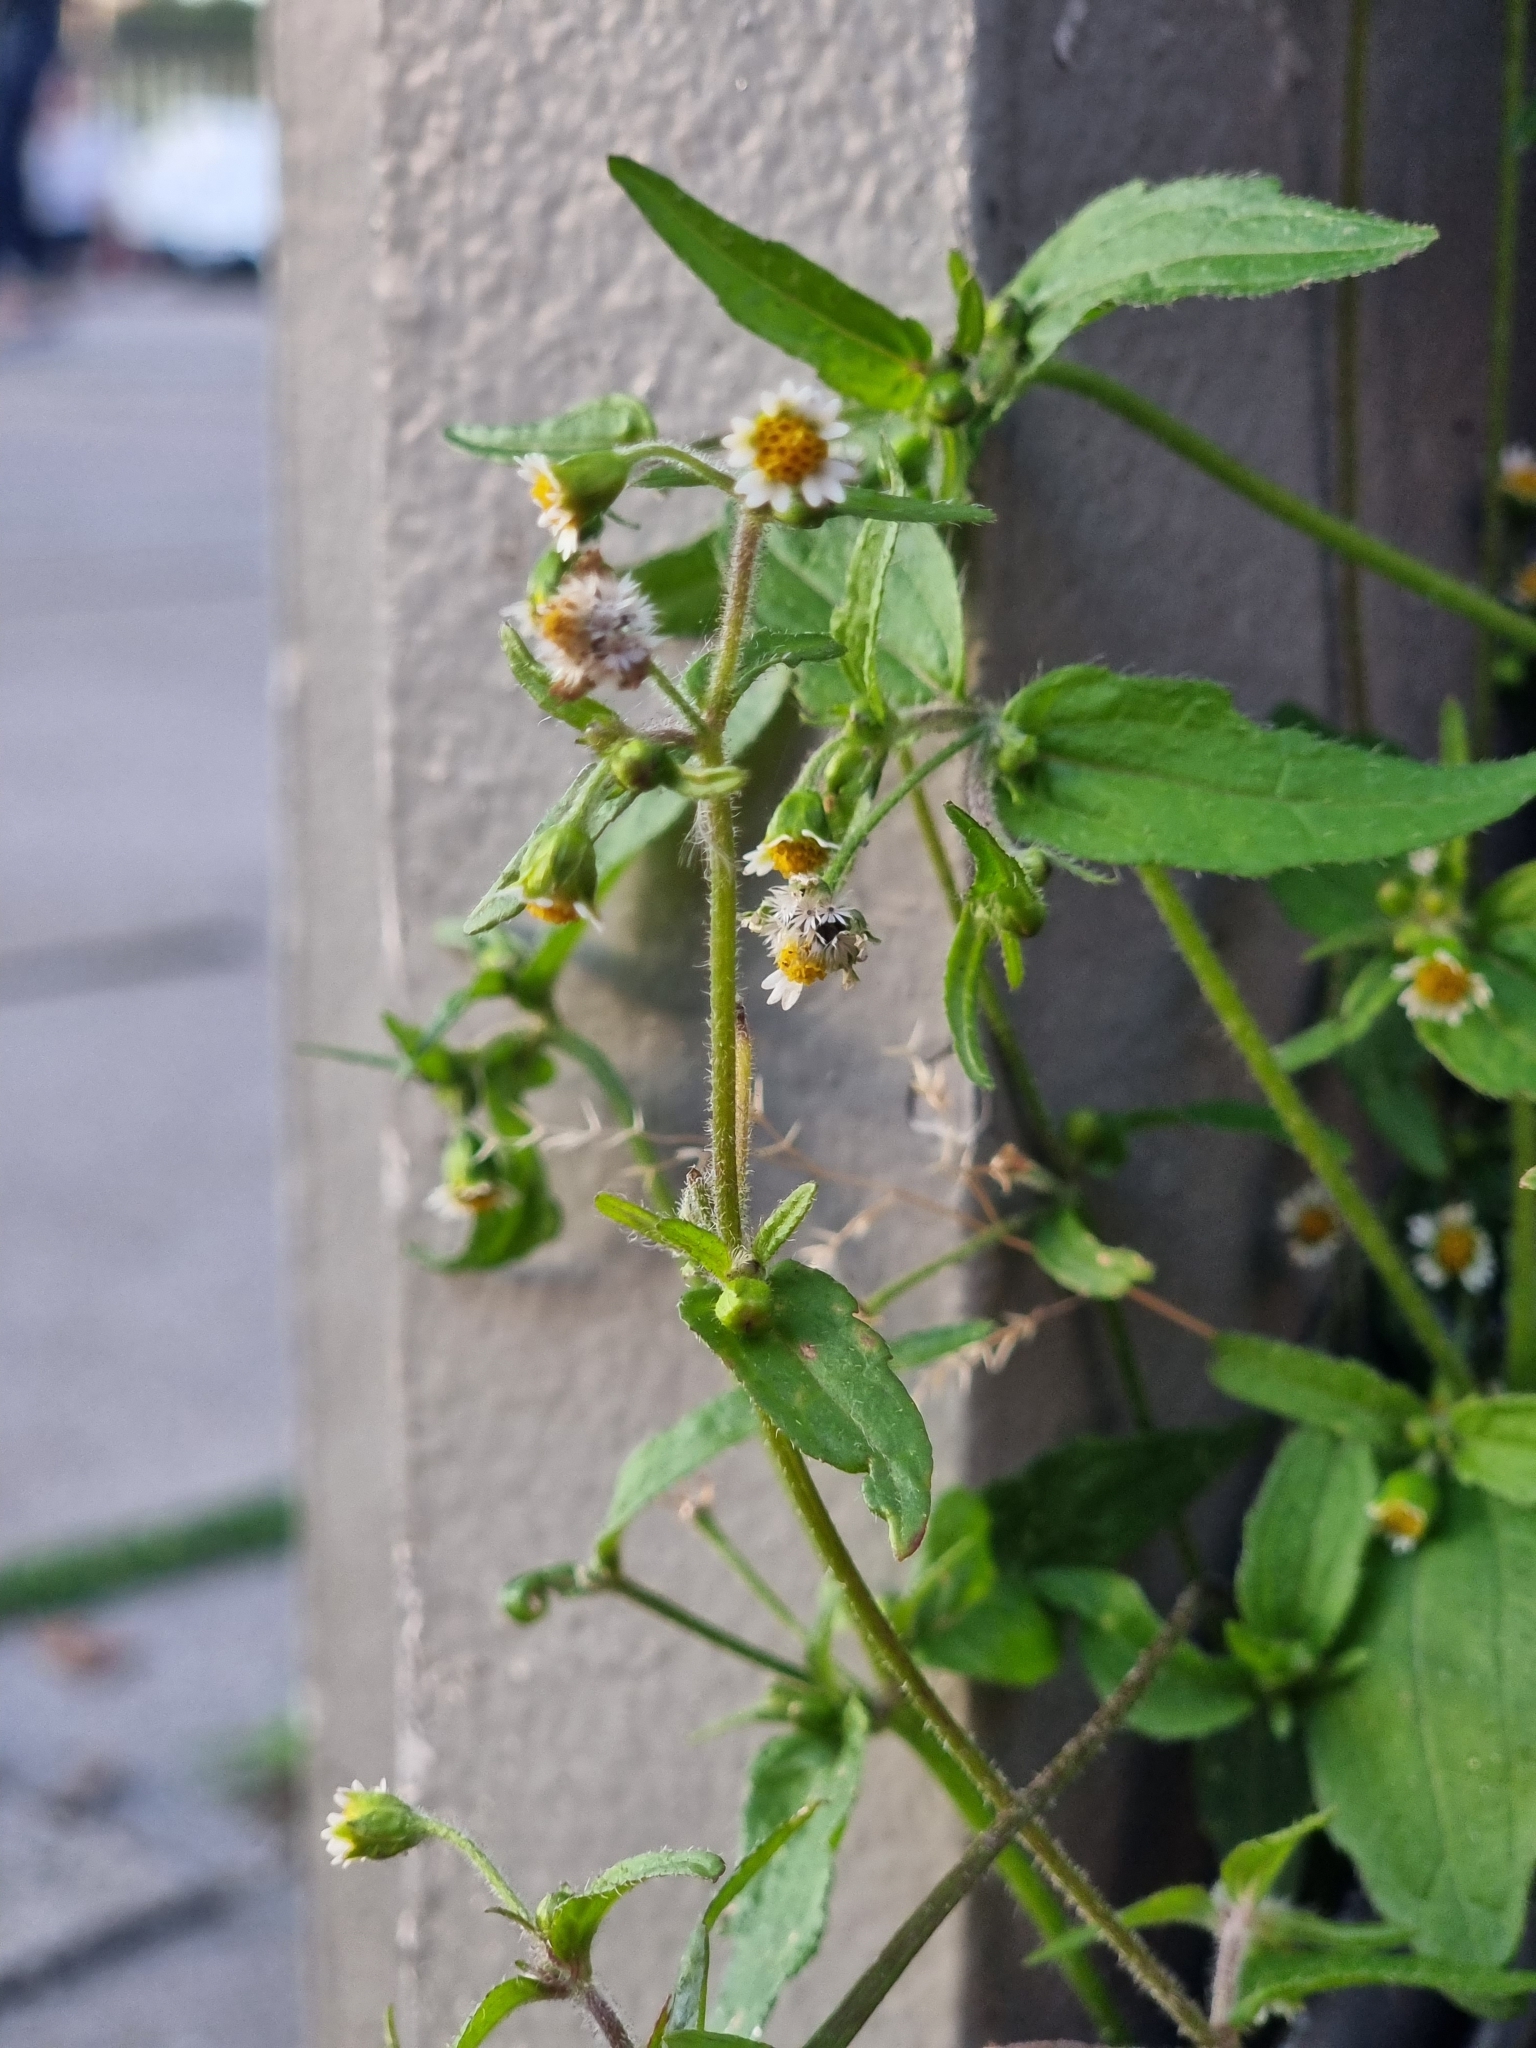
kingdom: Plantae
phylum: Tracheophyta
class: Magnoliopsida
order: Asterales
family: Asteraceae
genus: Galinsoga
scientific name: Galinsoga quadriradiata
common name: Shaggy soldier
